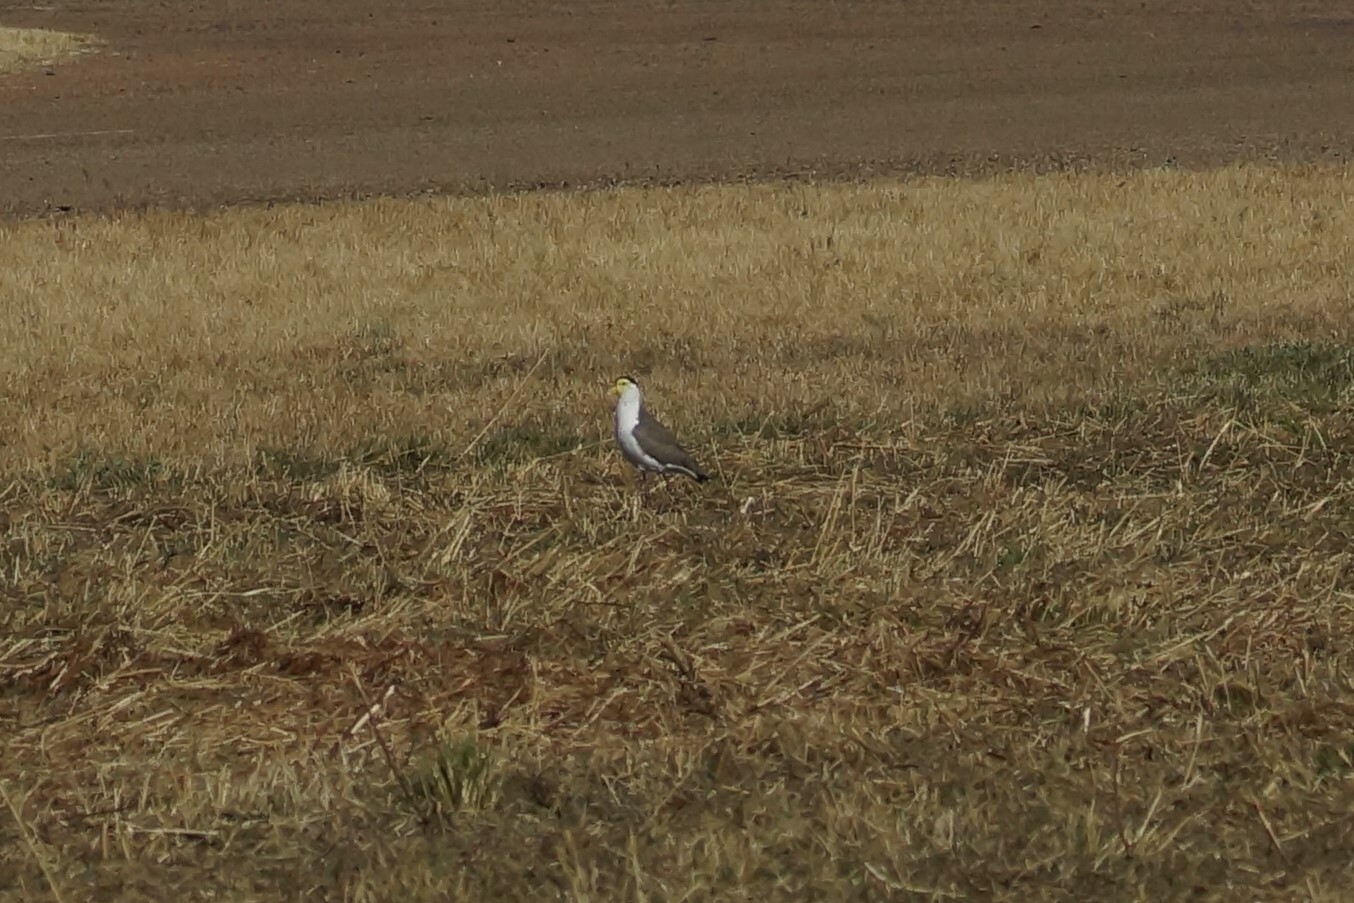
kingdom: Animalia
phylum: Chordata
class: Aves
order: Charadriiformes
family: Charadriidae
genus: Vanellus
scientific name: Vanellus miles
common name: Masked lapwing
